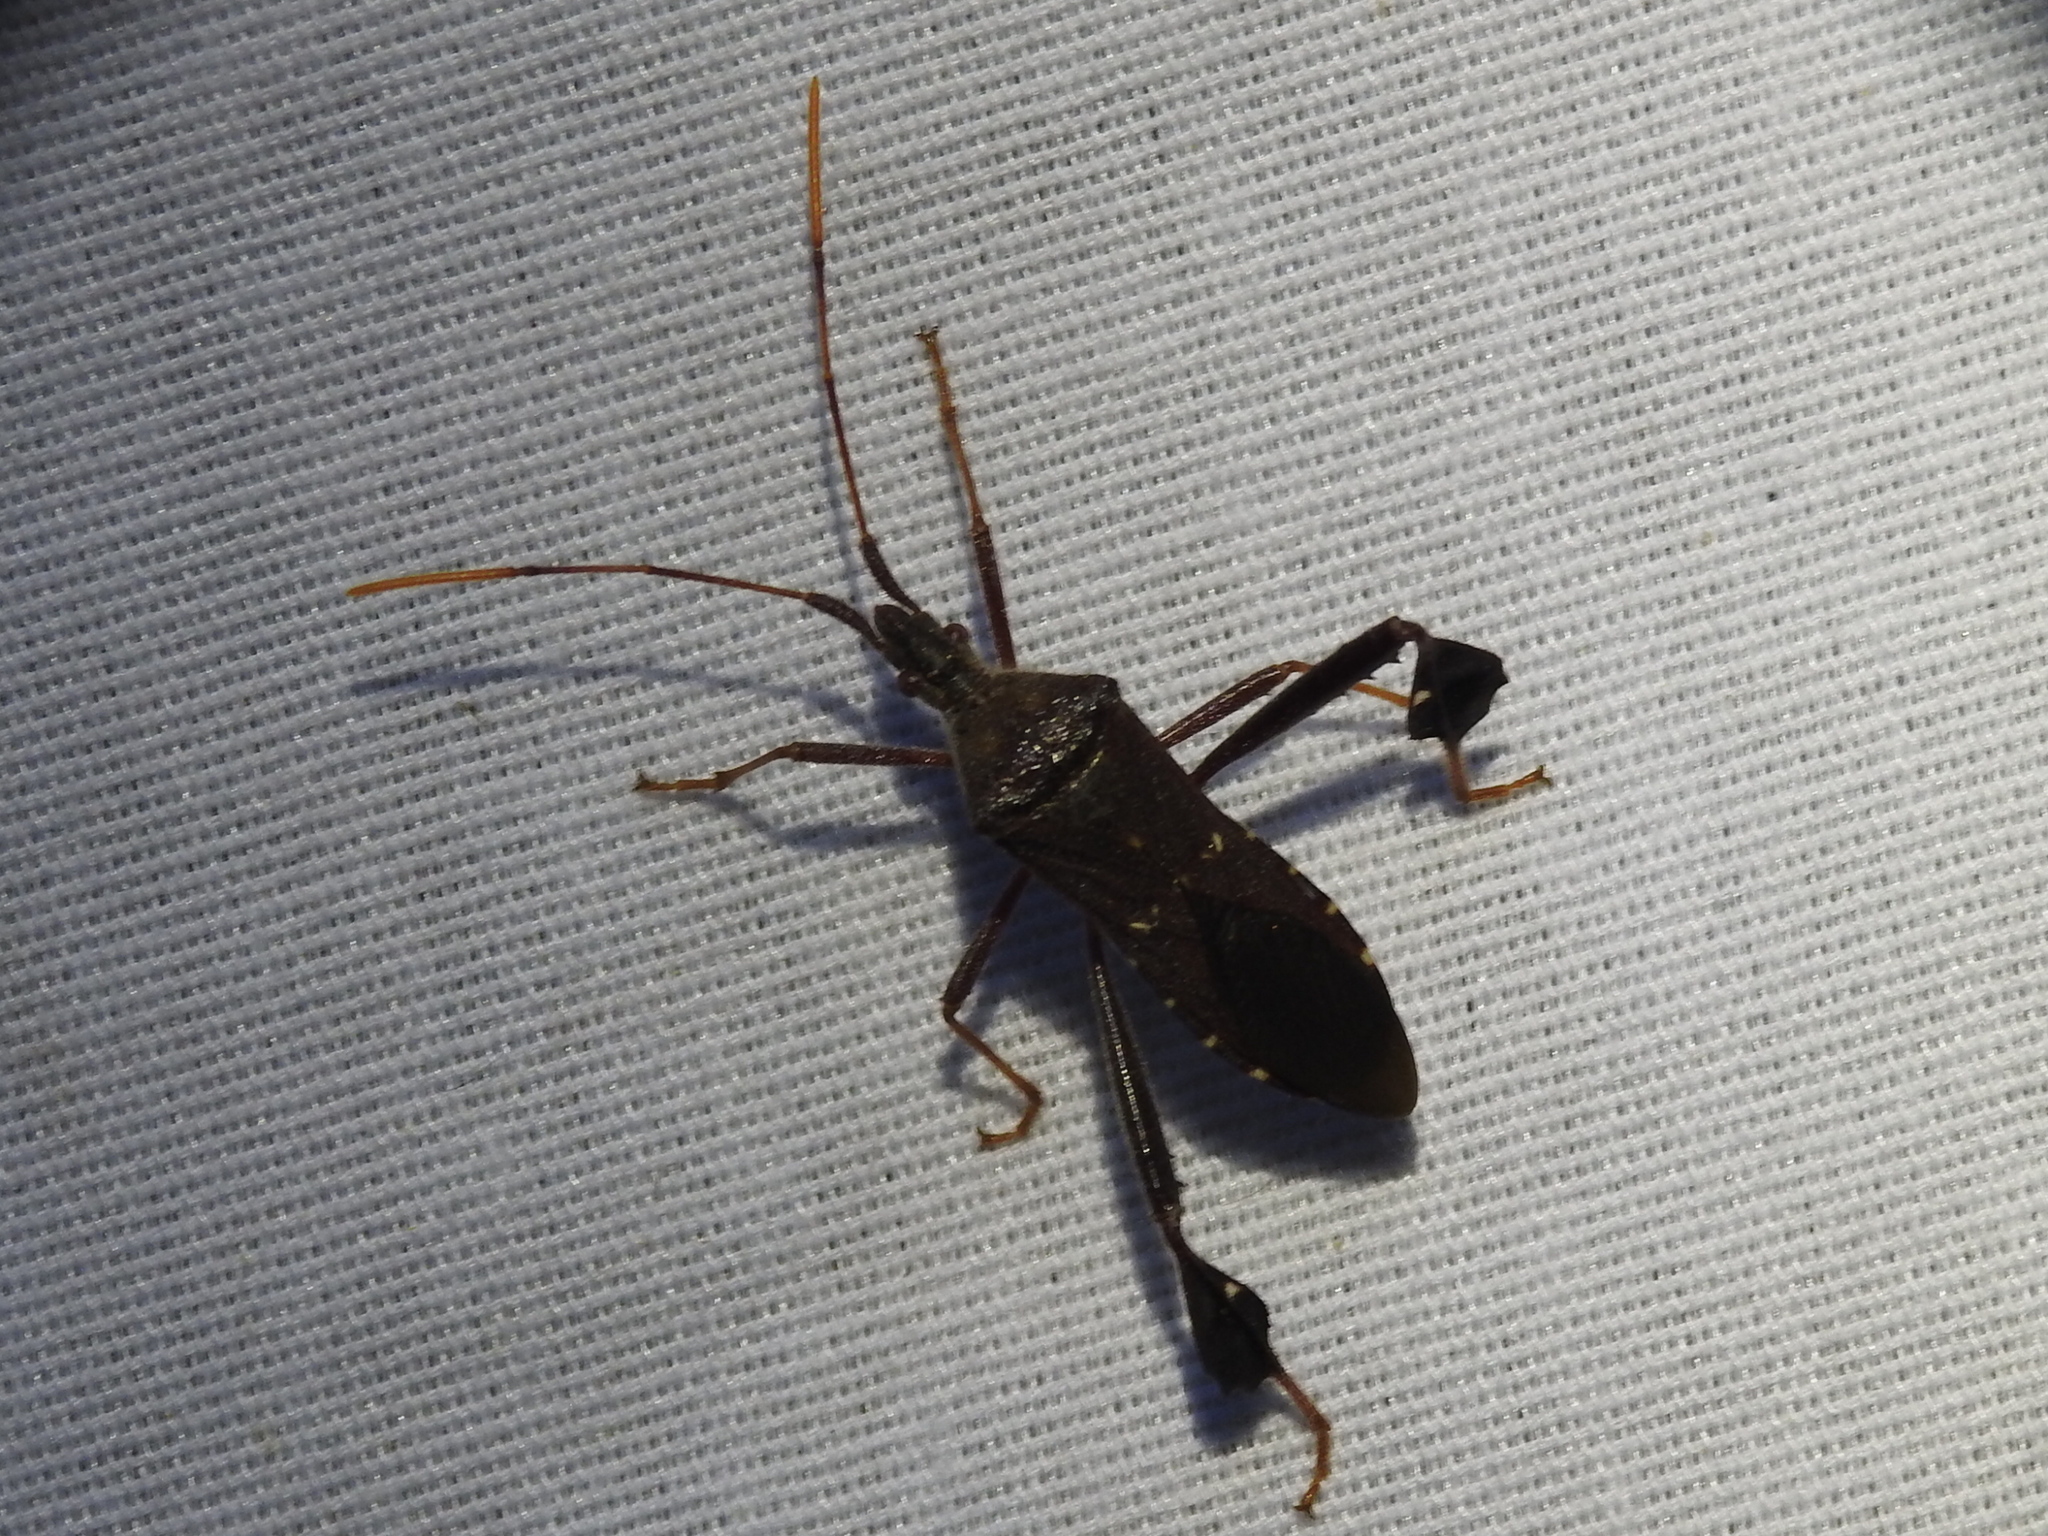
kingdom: Animalia
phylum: Arthropoda
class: Insecta
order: Hemiptera
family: Coreidae
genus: Leptoglossus
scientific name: Leptoglossus oppositus
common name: Northern leaf-footed bug
